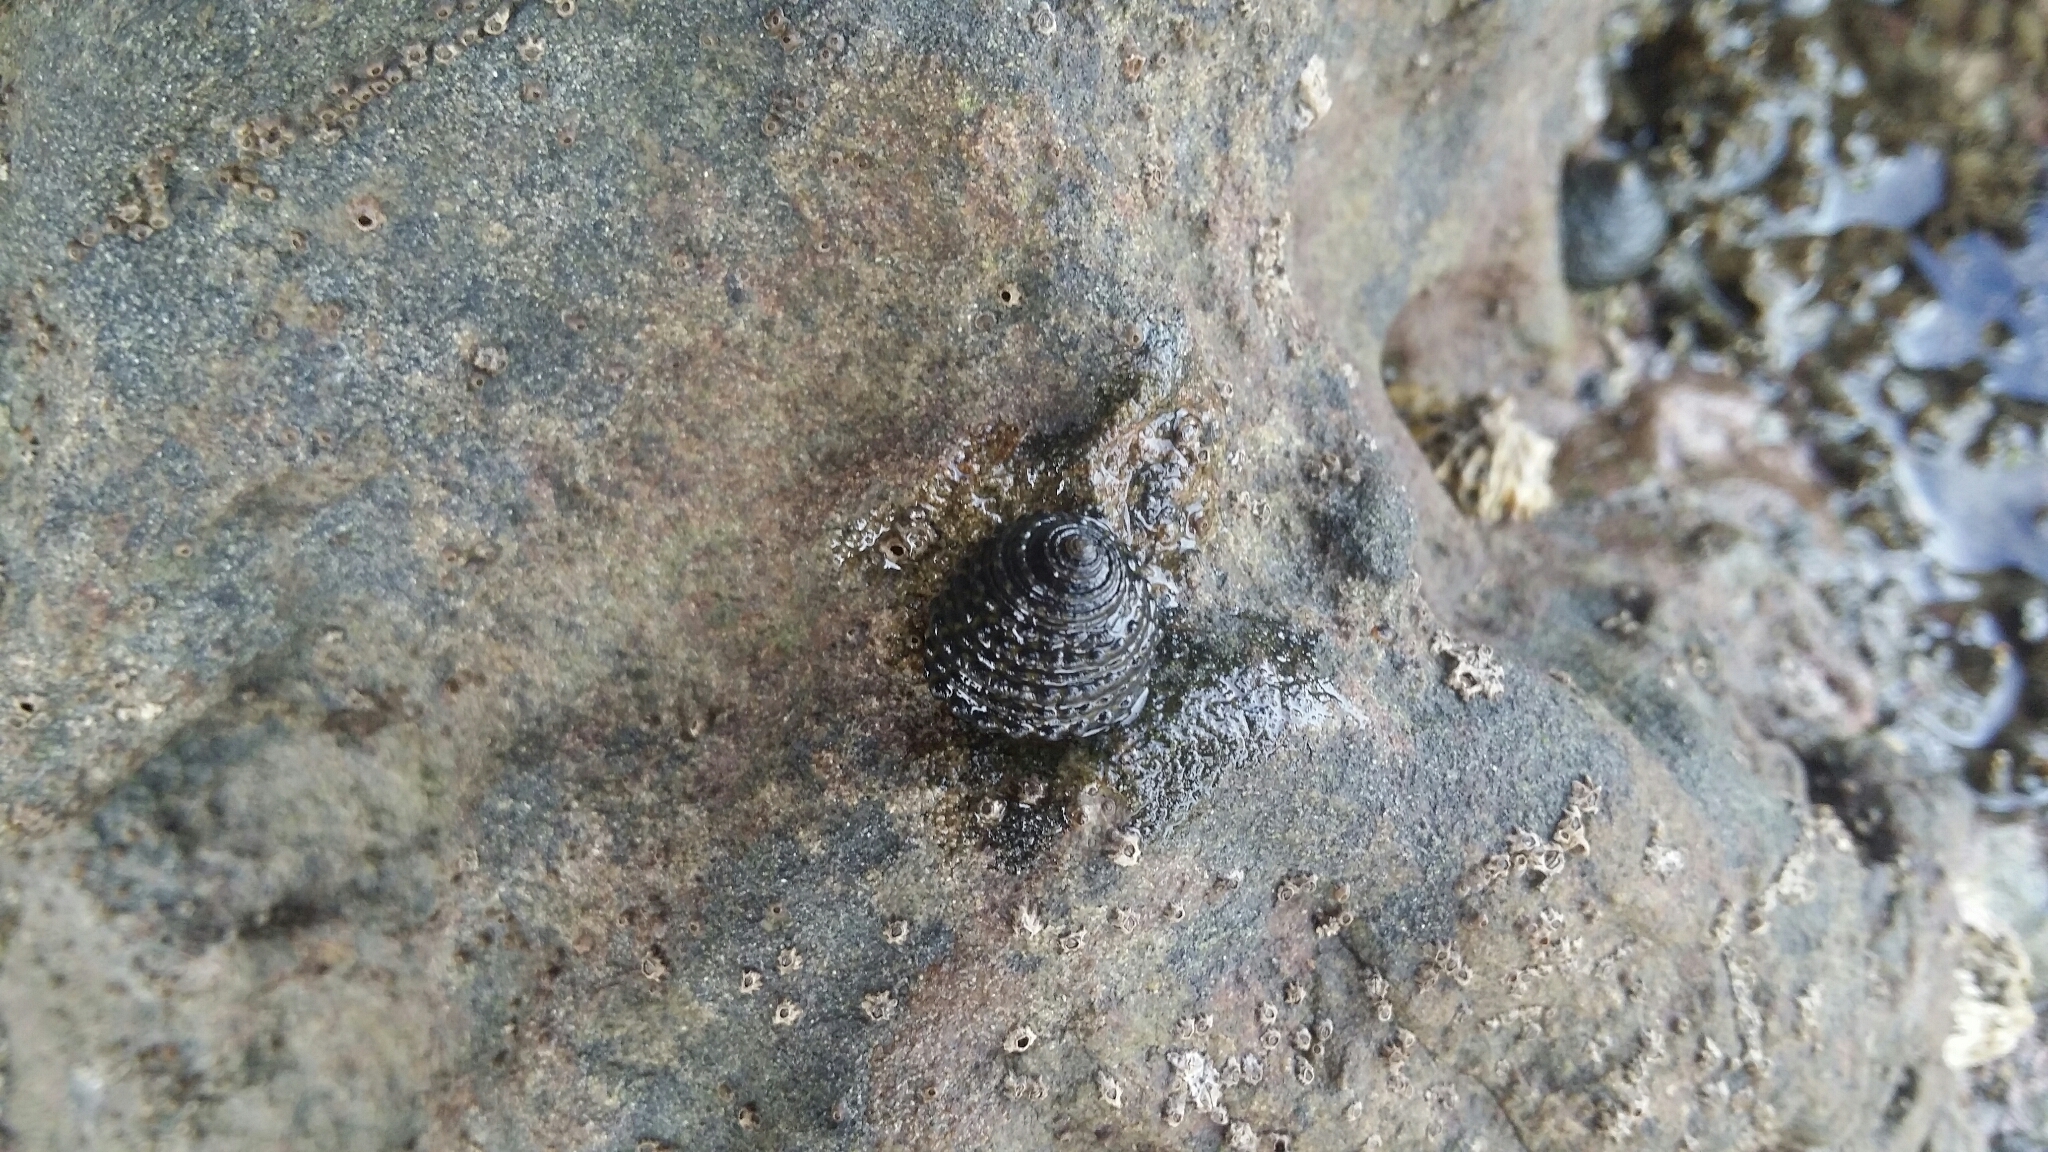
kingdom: Animalia
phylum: Mollusca
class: Gastropoda
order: Trochida
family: Trochidae
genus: Diloma
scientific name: Diloma bicanaliculatum
